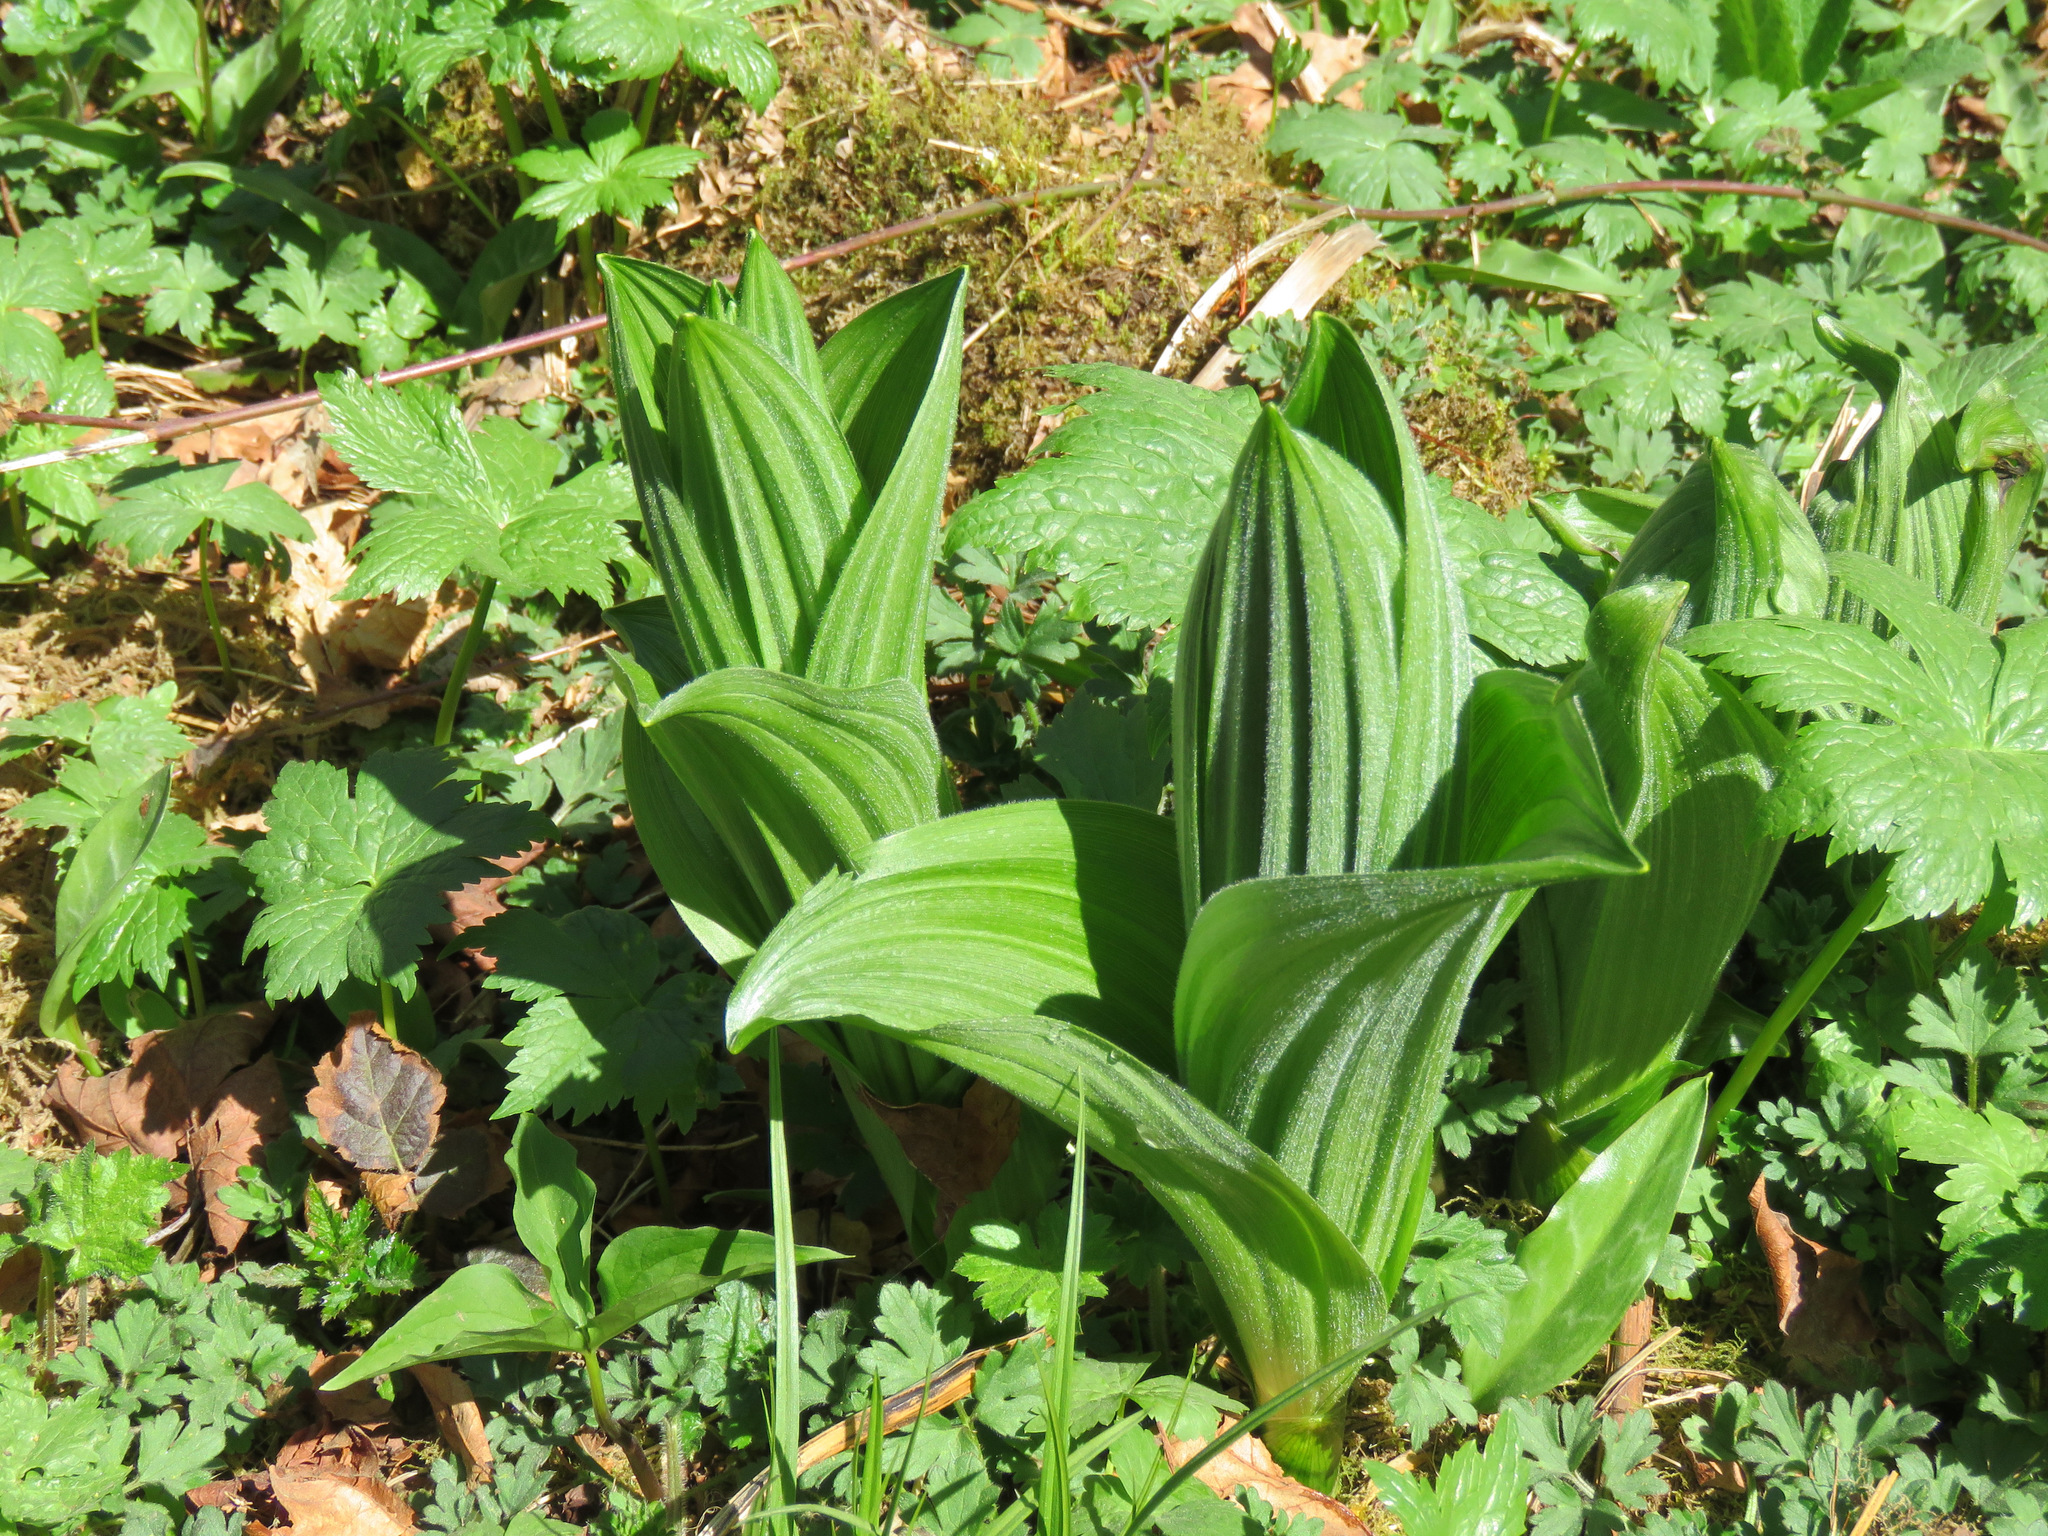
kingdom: Plantae
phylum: Tracheophyta
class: Liliopsida
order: Liliales
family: Melanthiaceae
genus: Veratrum
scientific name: Veratrum viride
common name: American false hellebore
